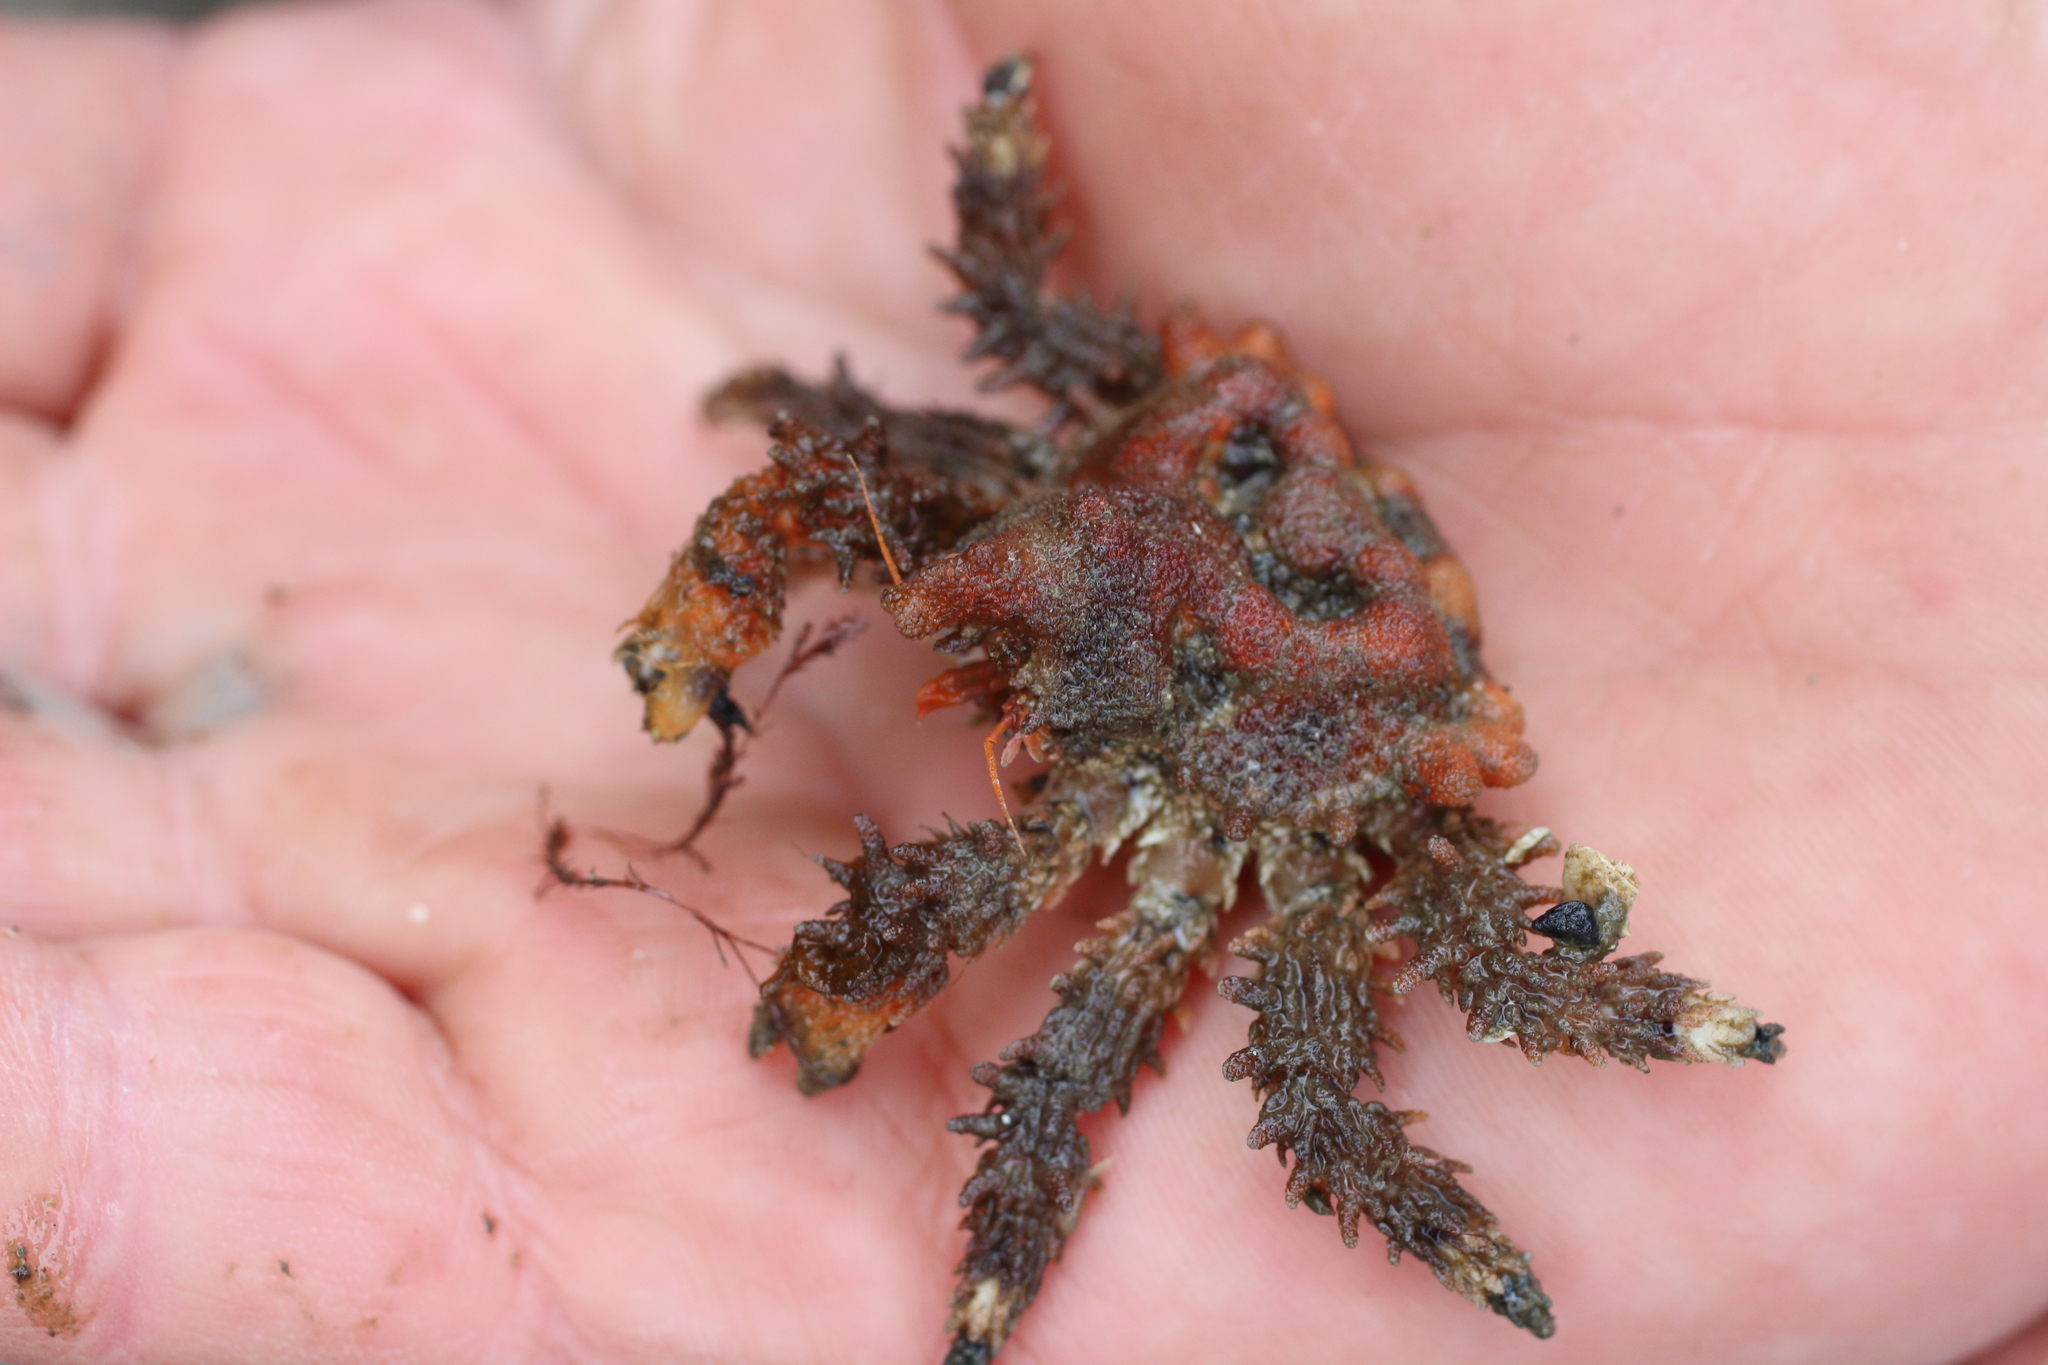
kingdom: Animalia
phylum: Arthropoda
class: Malacostraca
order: Decapoda
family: Lithodidae
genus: Phyllolithodes
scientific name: Phyllolithodes papillosus
